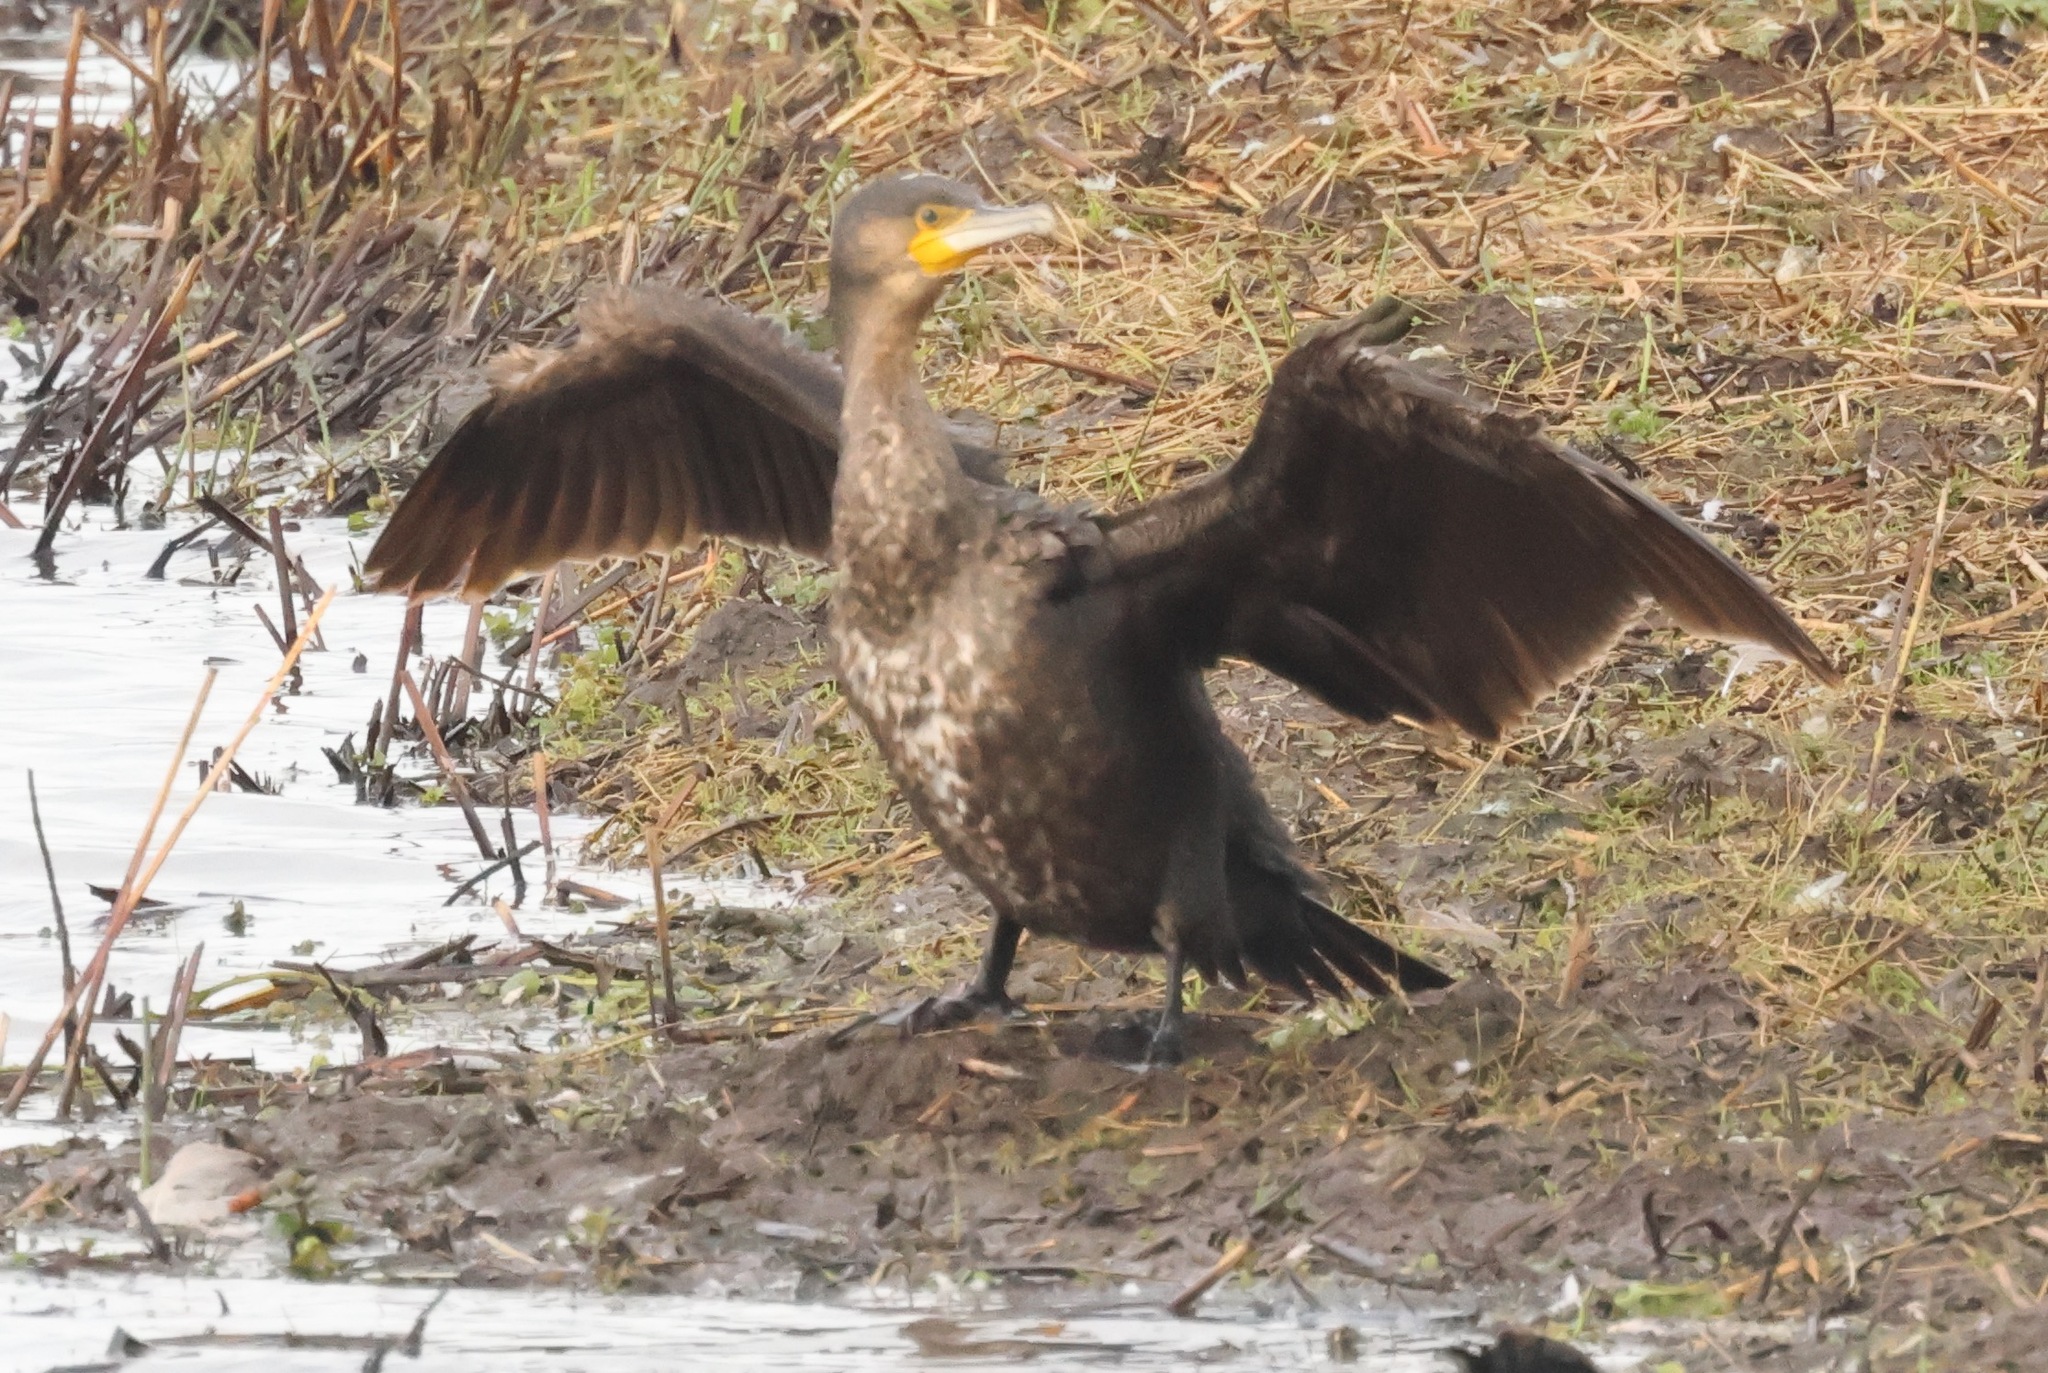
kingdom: Animalia
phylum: Chordata
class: Aves
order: Suliformes
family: Phalacrocoracidae
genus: Phalacrocorax
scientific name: Phalacrocorax carbo
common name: Great cormorant
